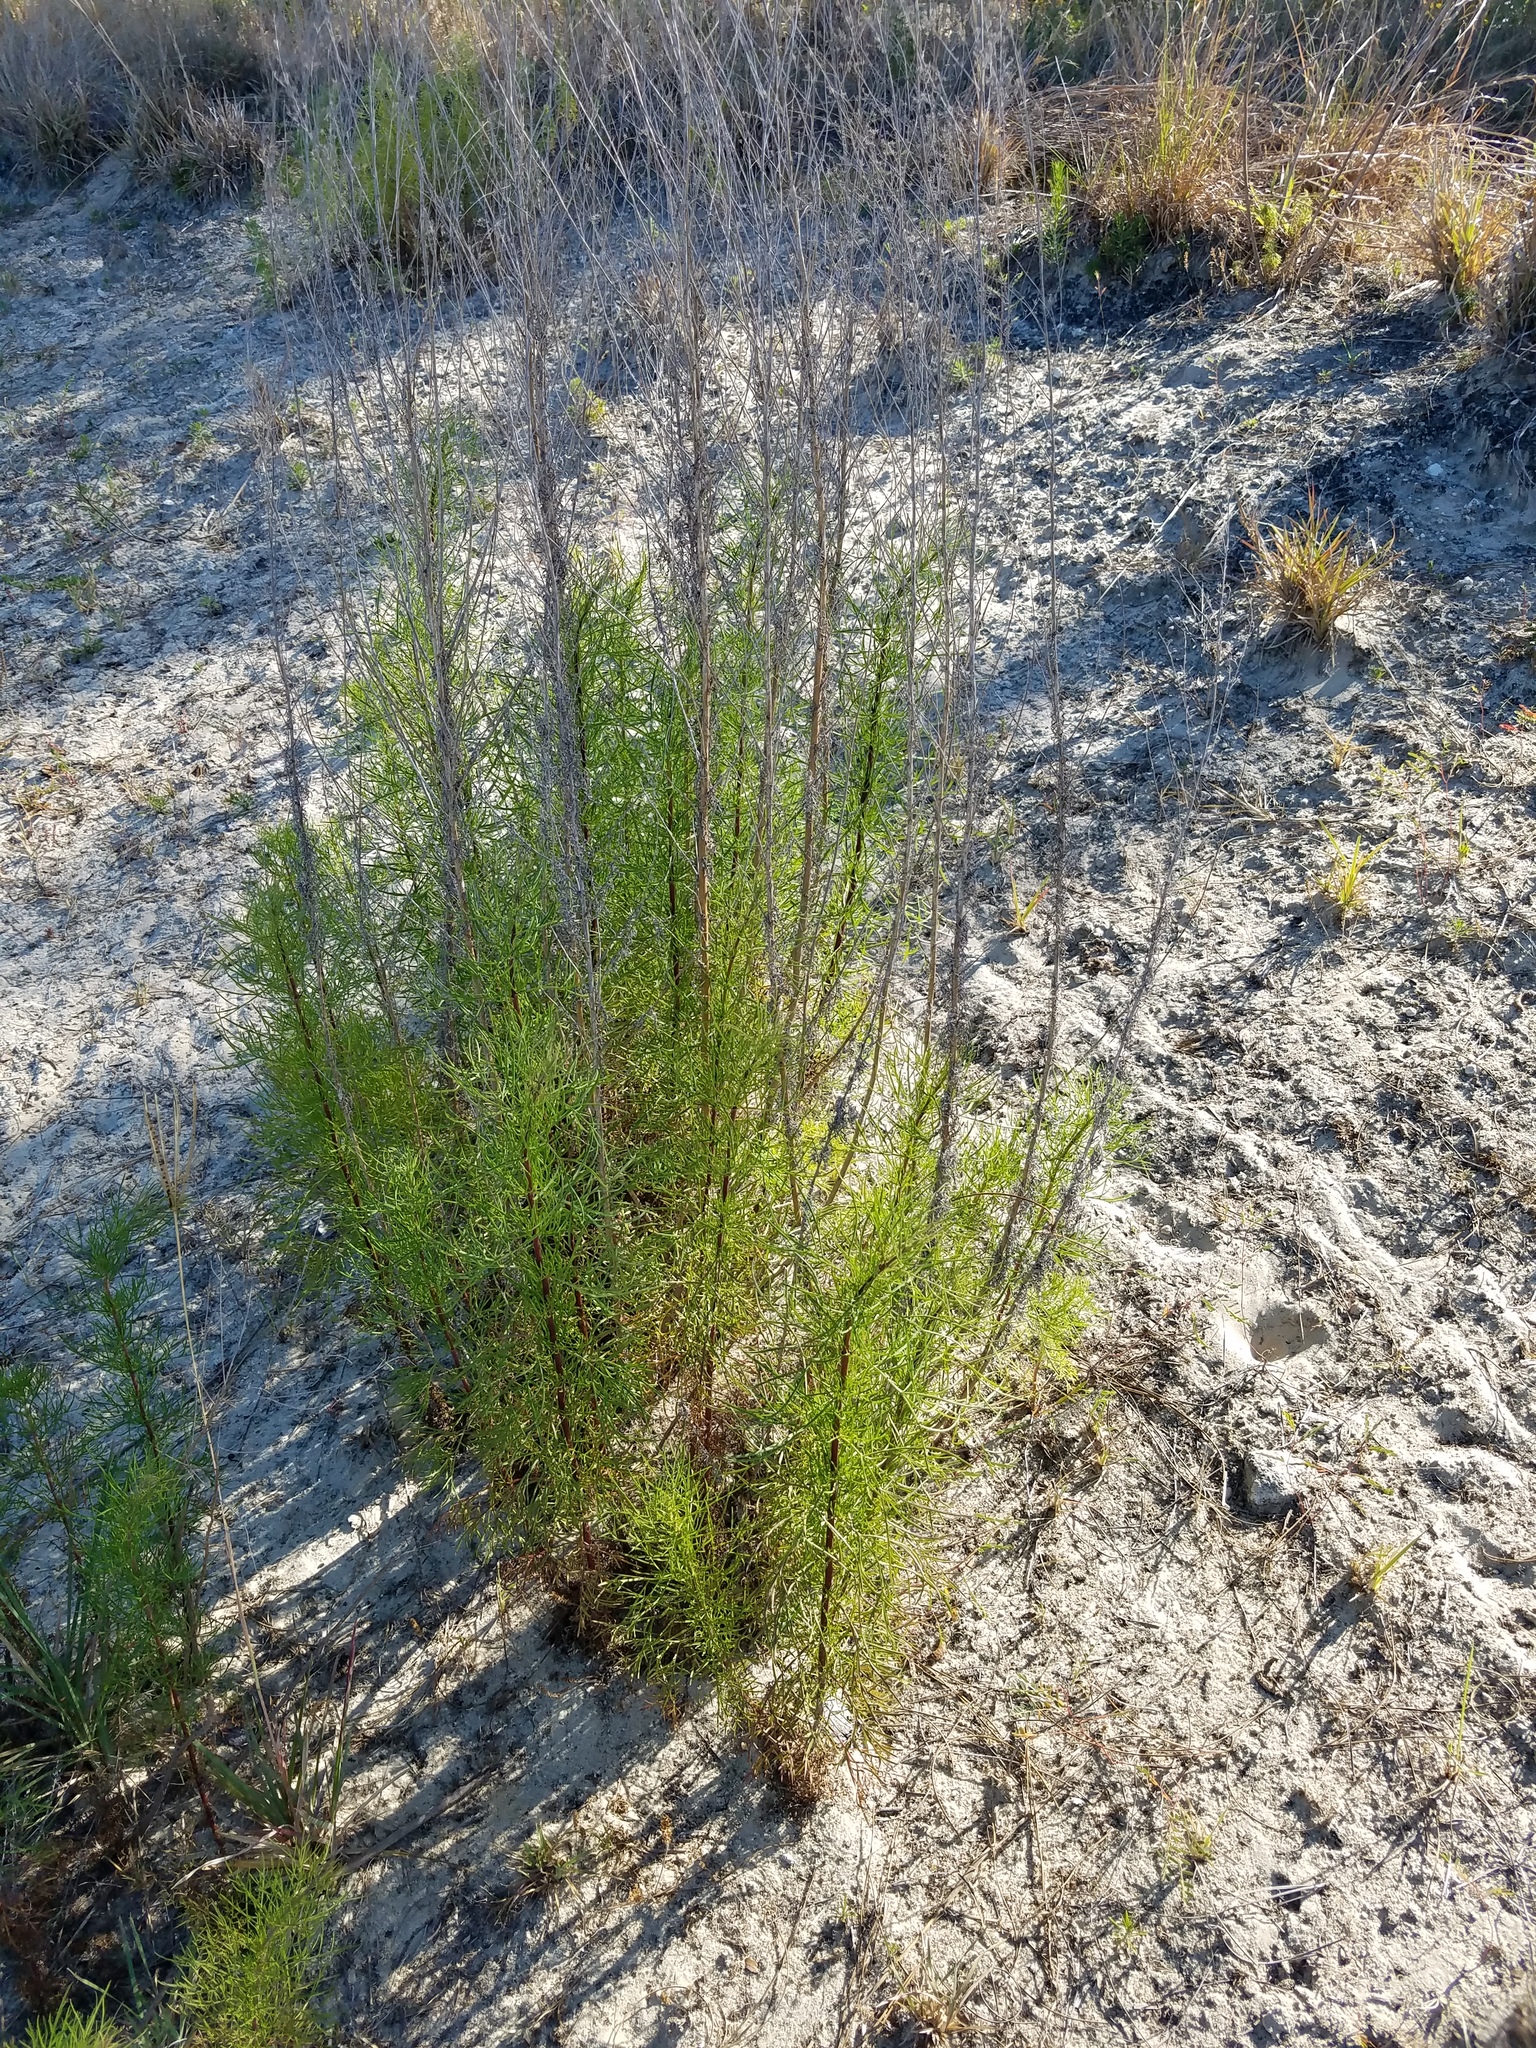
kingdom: Plantae
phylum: Tracheophyta
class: Magnoliopsida
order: Asterales
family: Asteraceae
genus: Eupatorium
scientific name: Eupatorium capillifolium
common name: Dog-fennel
